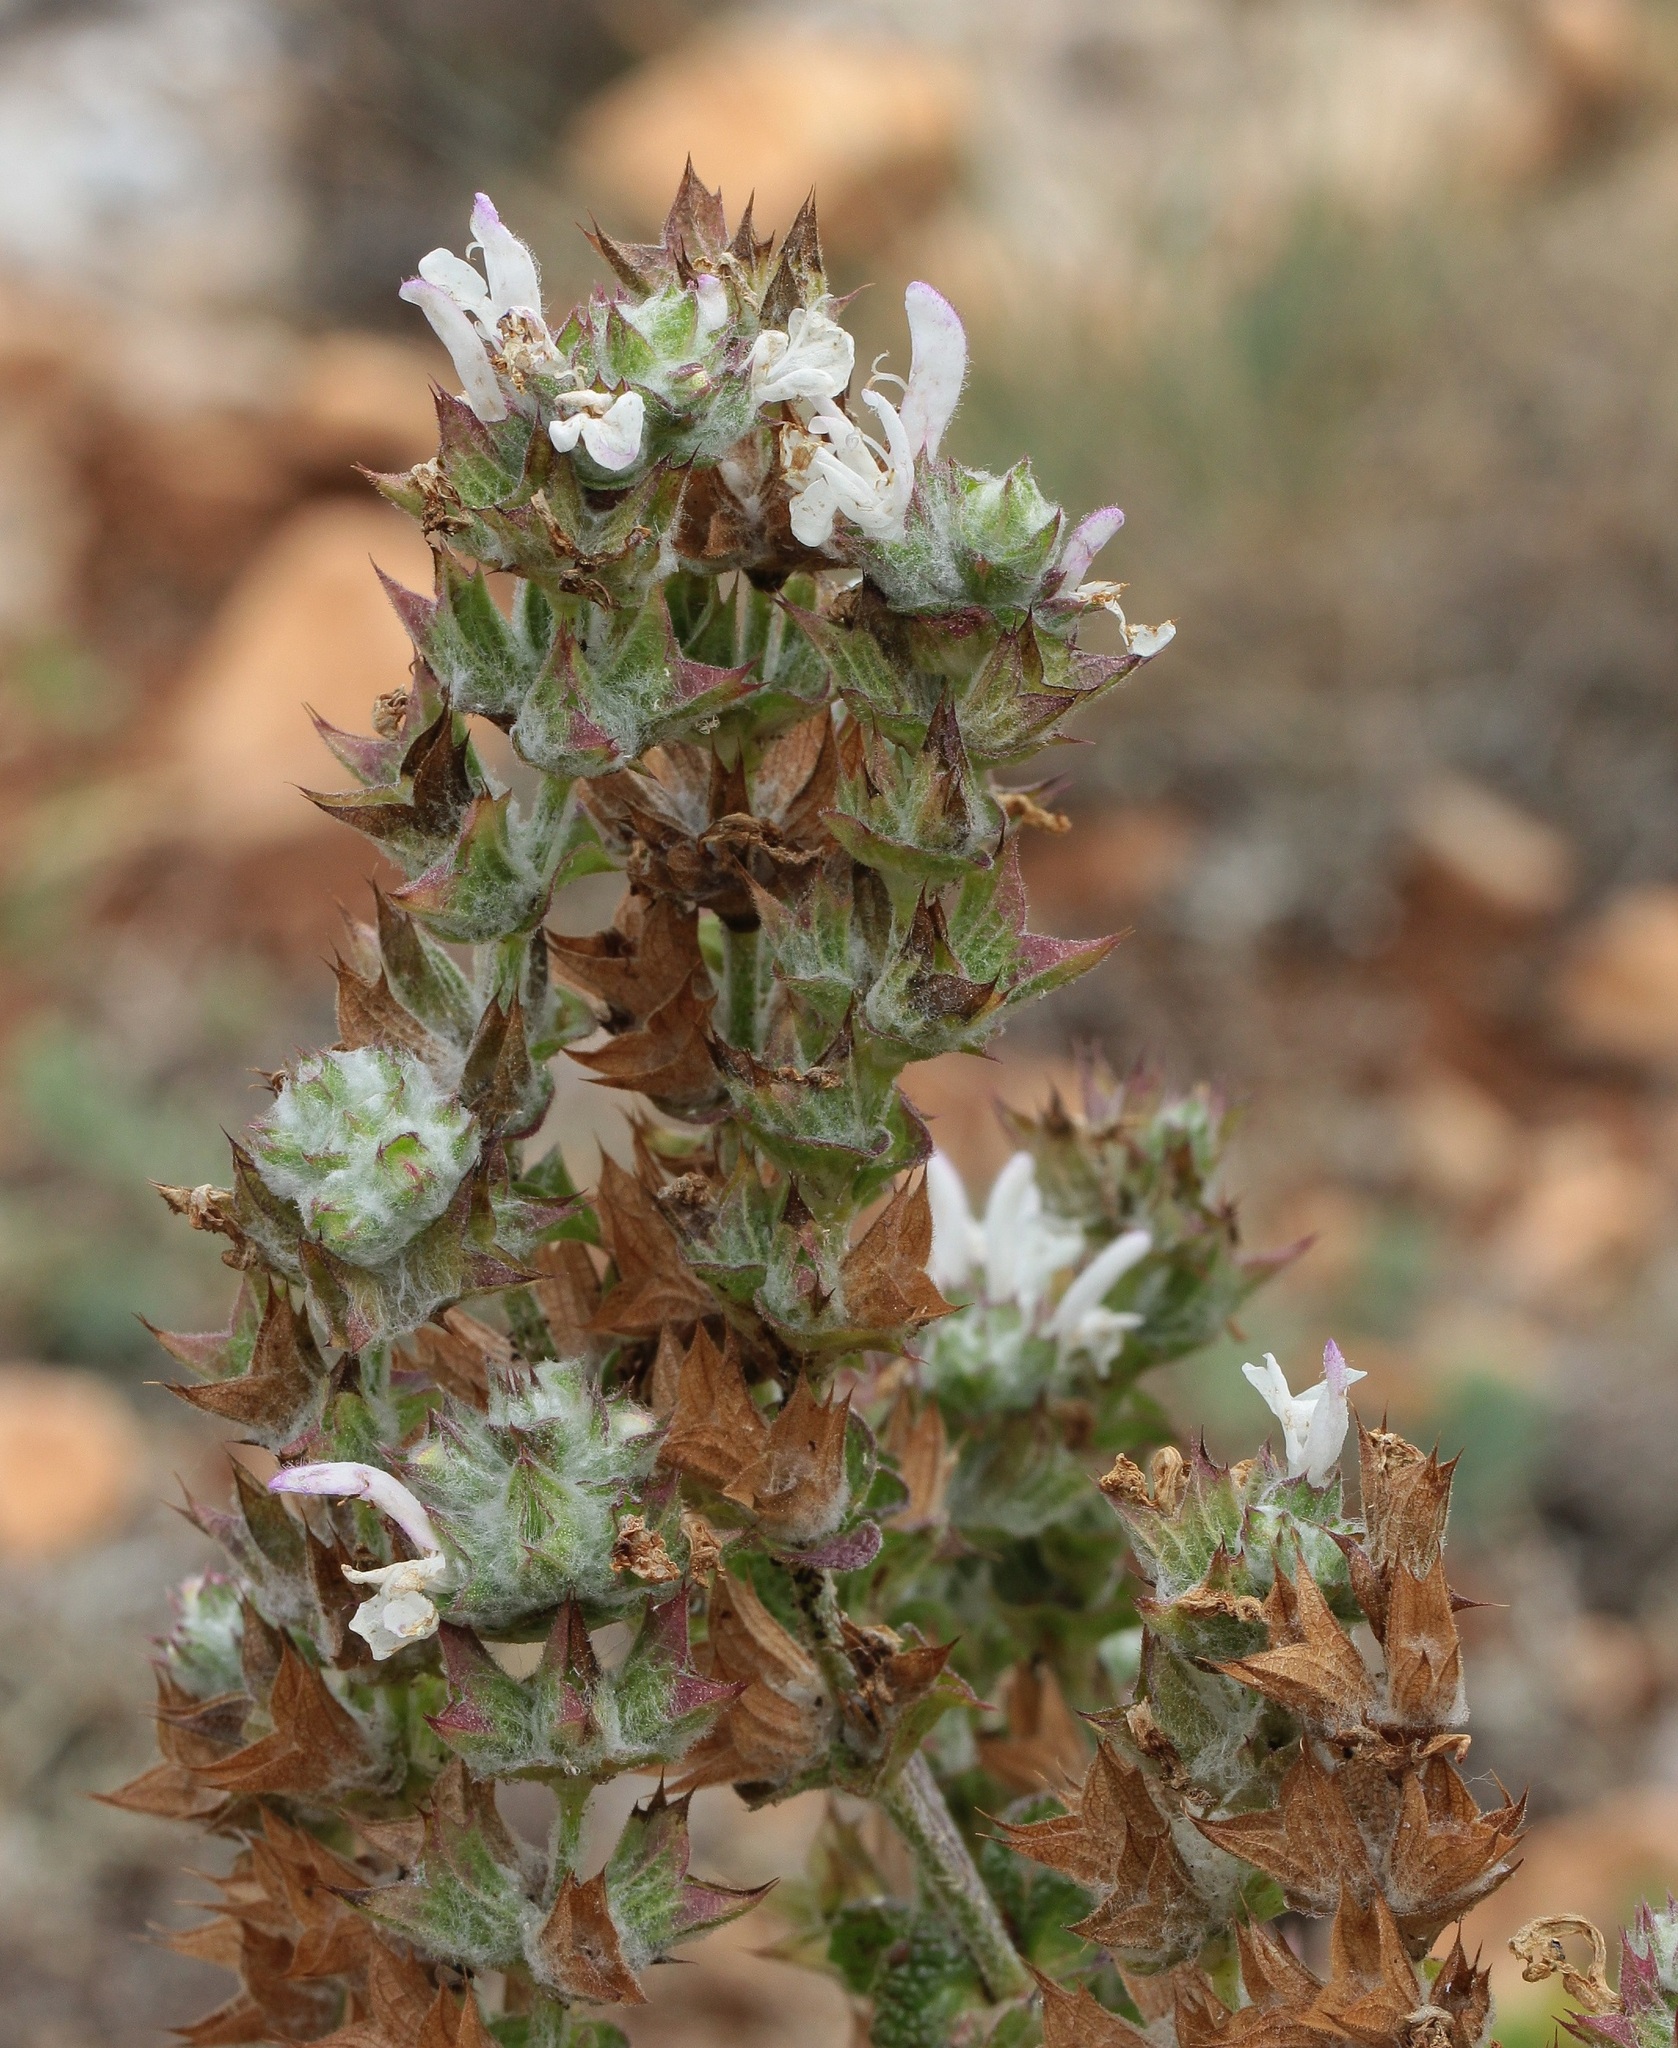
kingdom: Plantae
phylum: Tracheophyta
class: Magnoliopsida
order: Lamiales
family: Lamiaceae
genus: Salvia
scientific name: Salvia aethiopis
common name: Mediterranean sage
